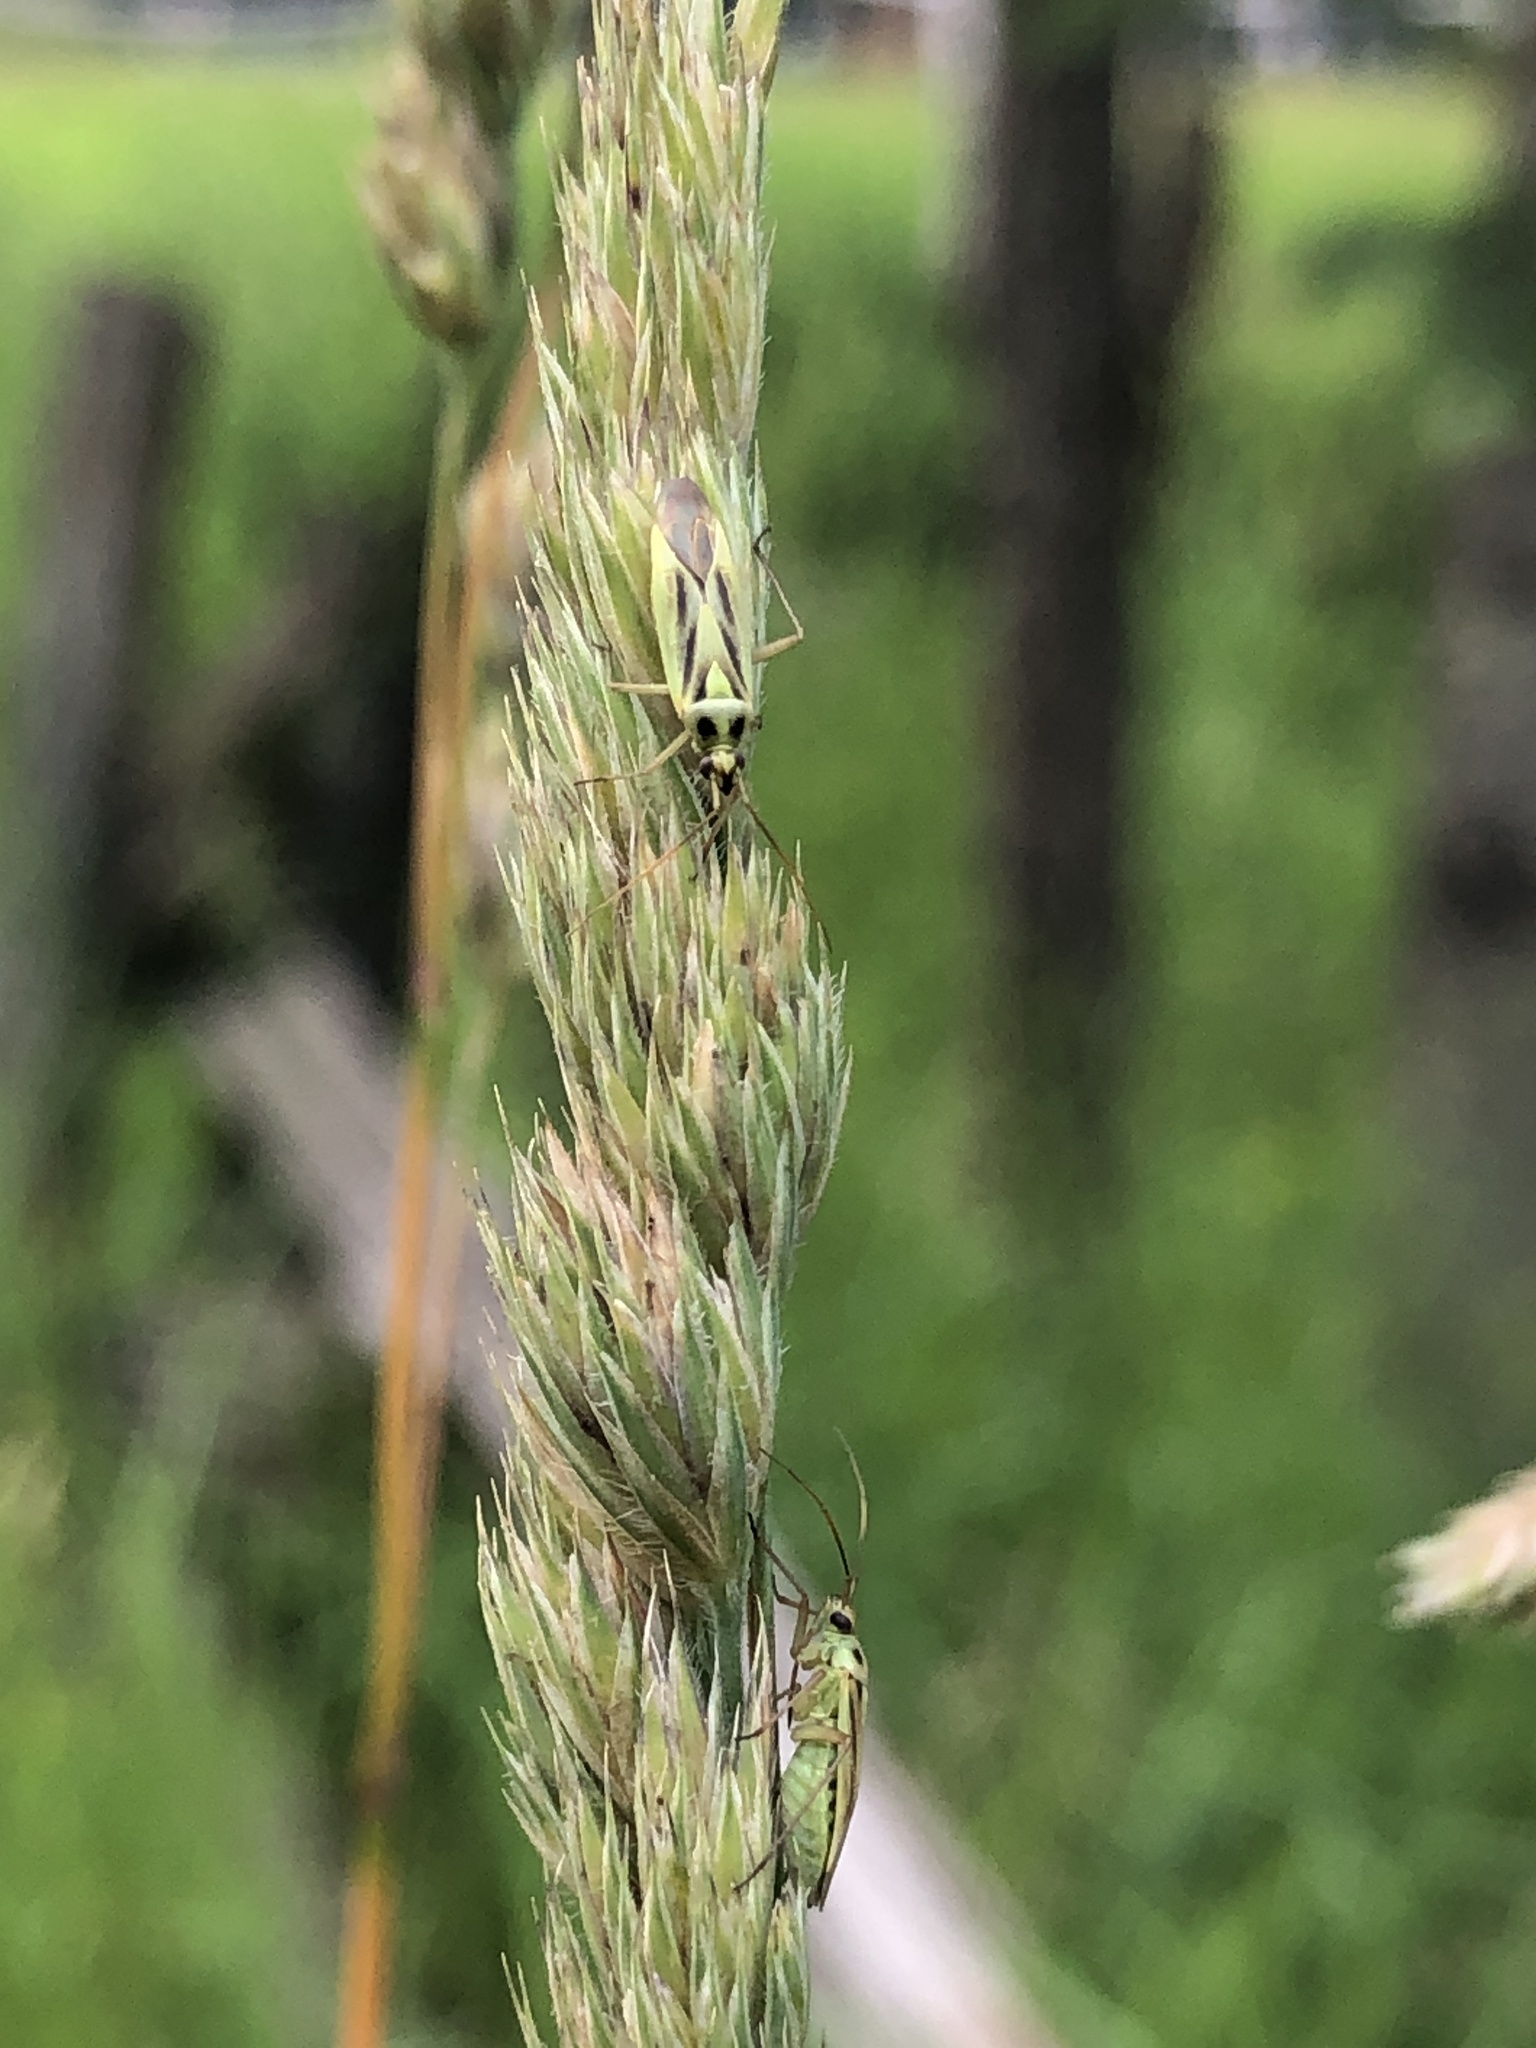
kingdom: Animalia
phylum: Arthropoda
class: Insecta
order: Hemiptera
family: Miridae
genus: Stenotus
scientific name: Stenotus binotatus
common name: Plant bug
